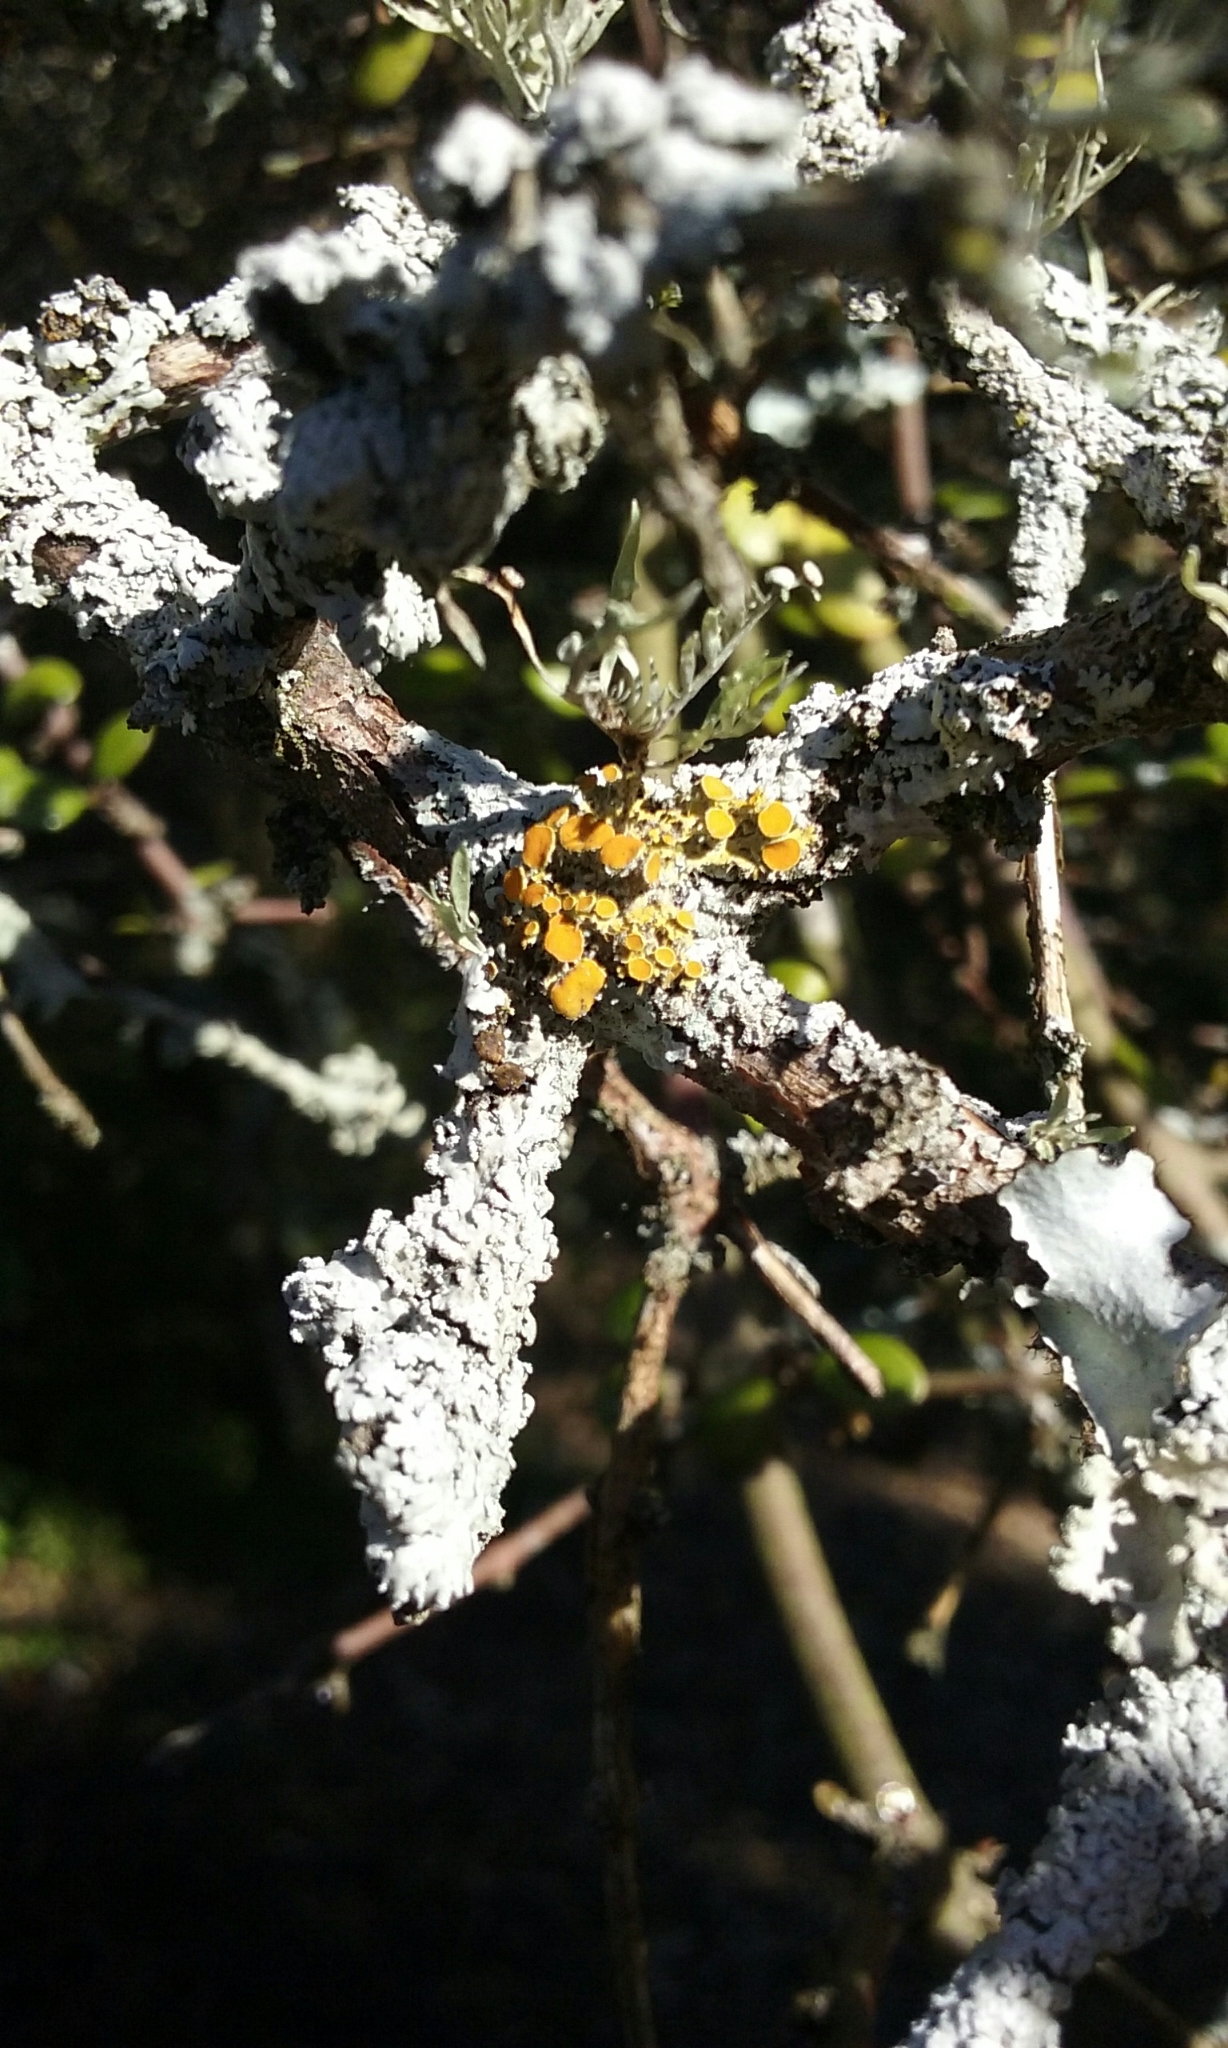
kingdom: Fungi
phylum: Ascomycota
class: Lecanoromycetes
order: Teloschistales
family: Teloschistaceae
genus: Teloschistes
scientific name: Teloschistes sieberianus
